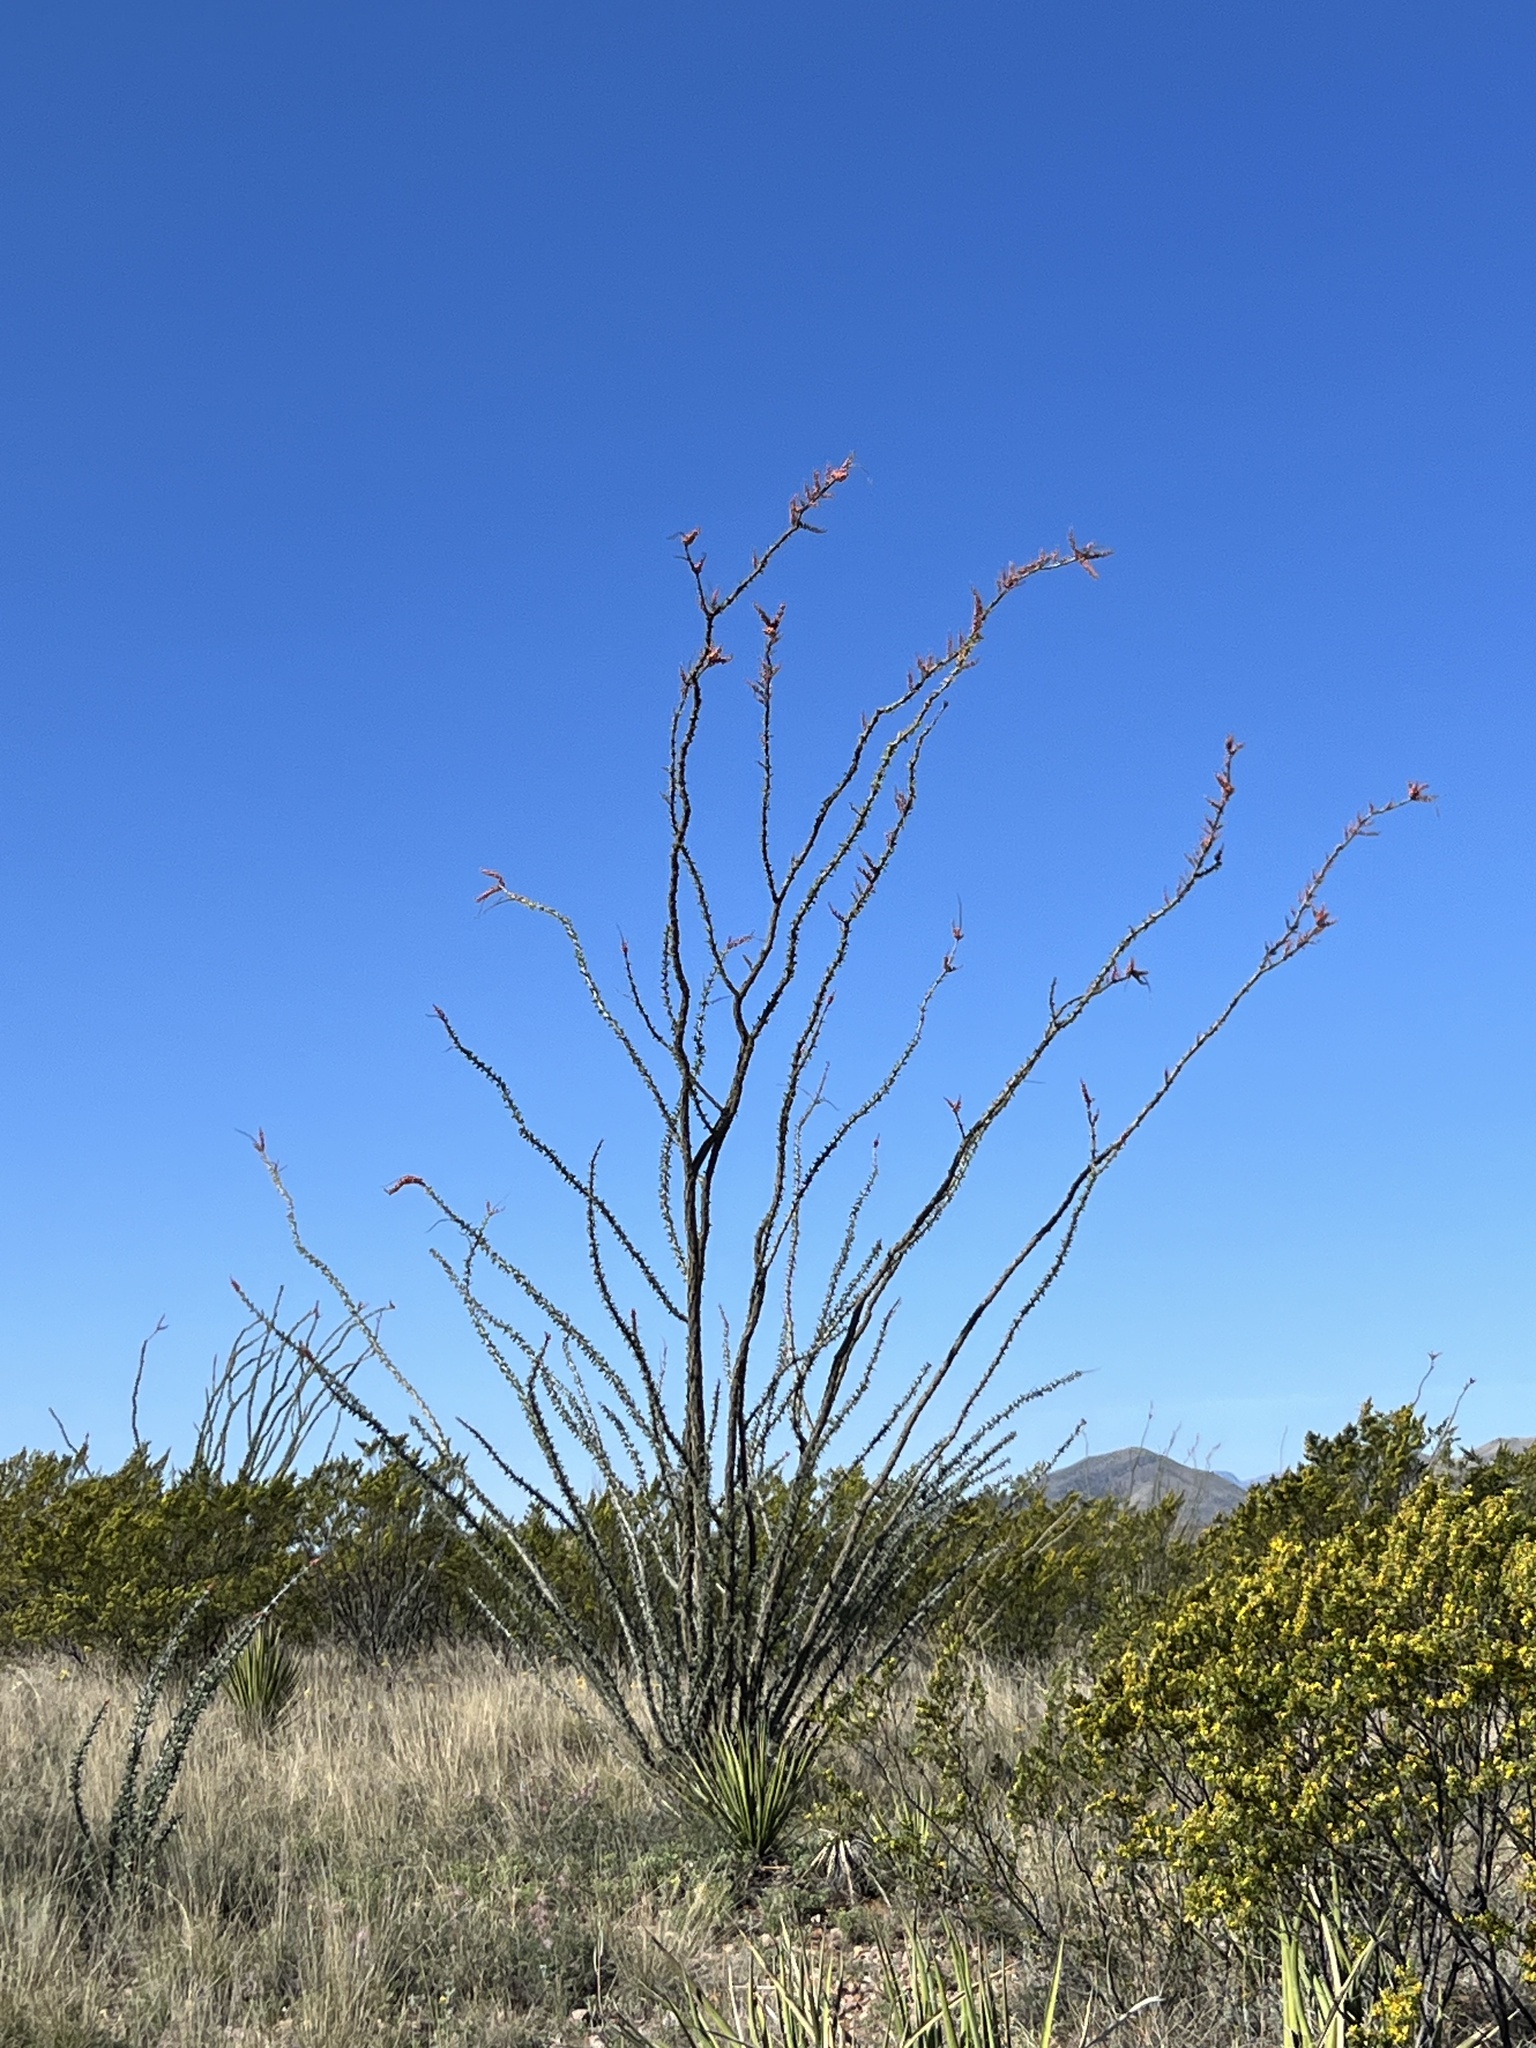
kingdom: Plantae
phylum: Tracheophyta
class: Magnoliopsida
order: Ericales
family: Fouquieriaceae
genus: Fouquieria
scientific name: Fouquieria splendens
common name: Vine-cactus
